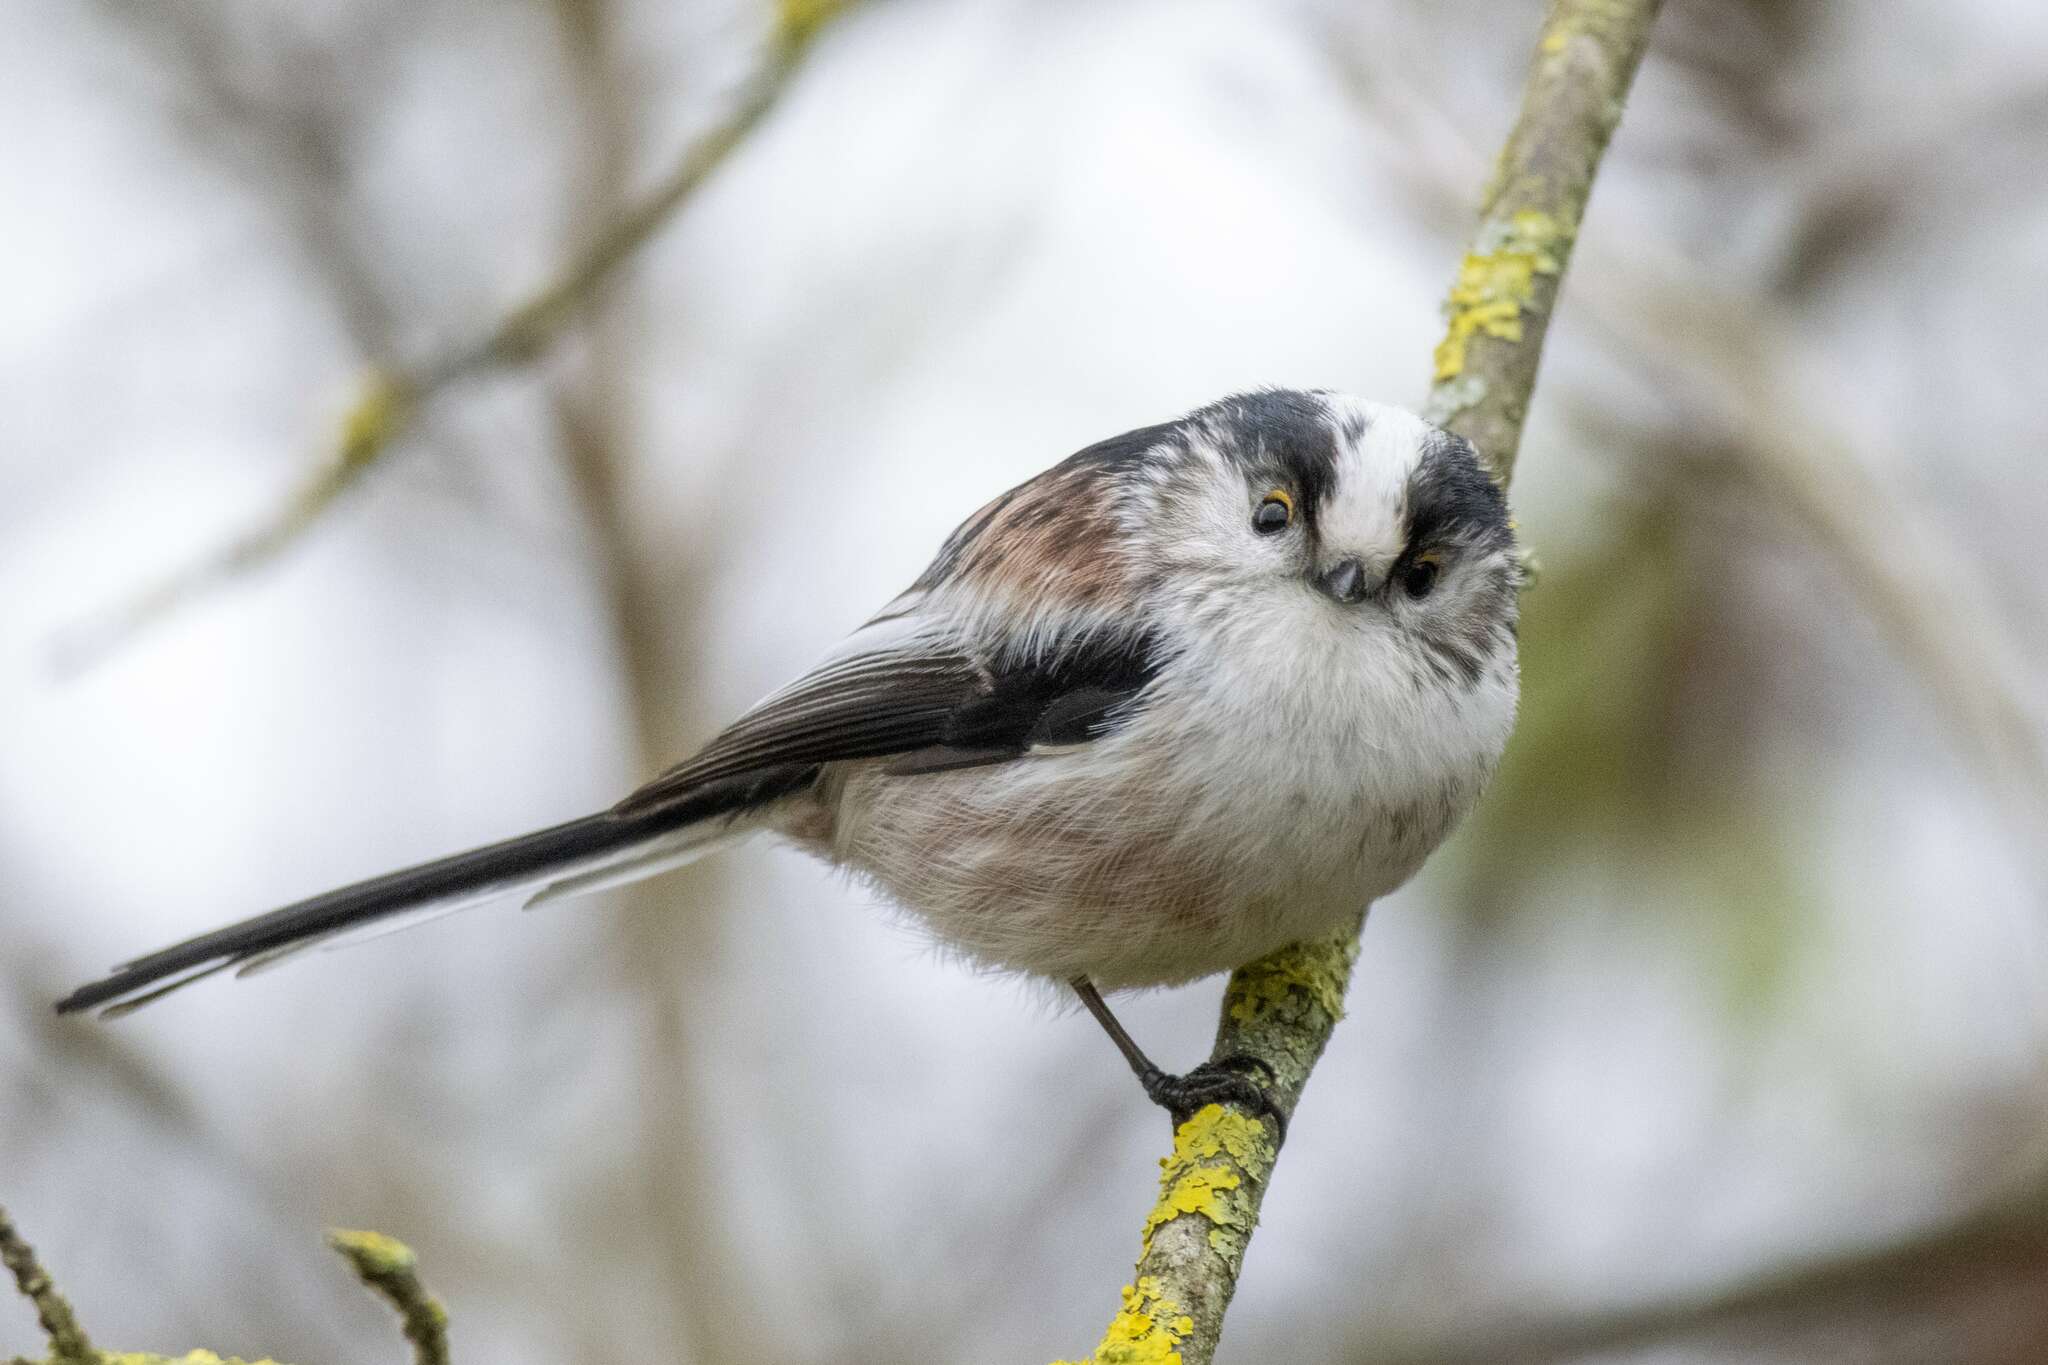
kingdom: Animalia
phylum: Chordata
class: Aves
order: Passeriformes
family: Aegithalidae
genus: Aegithalos
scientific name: Aegithalos caudatus
